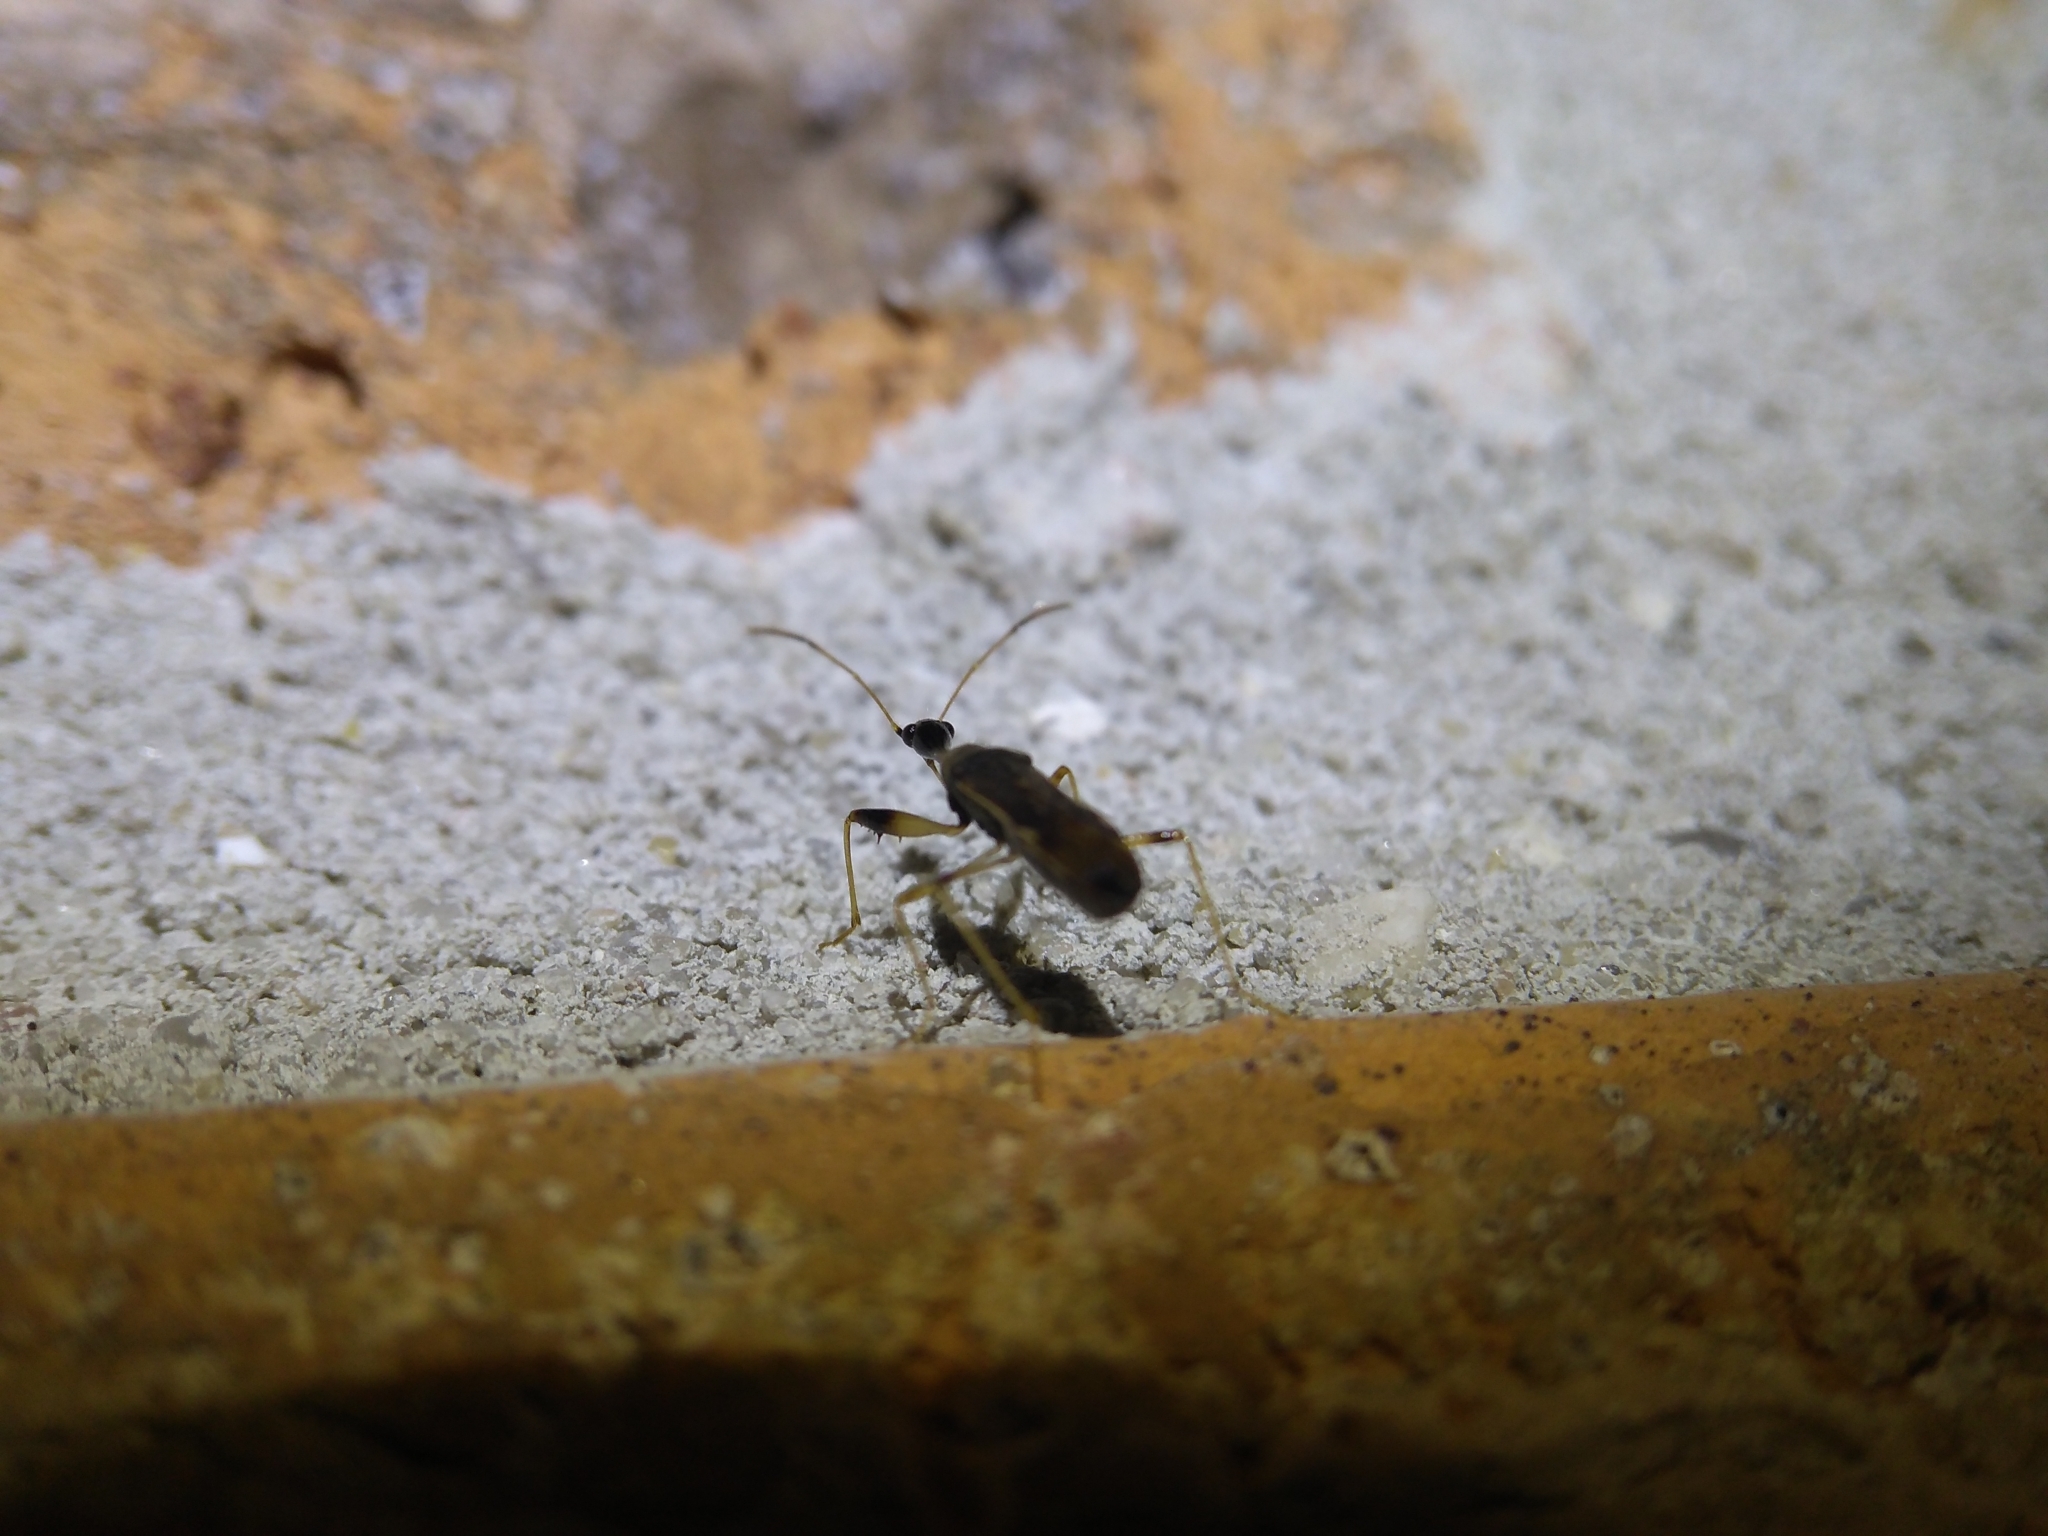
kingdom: Animalia
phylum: Arthropoda
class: Insecta
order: Hemiptera
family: Rhyparochromidae
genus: Myodocha
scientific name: Myodocha serripes
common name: Long-necked seed bug
